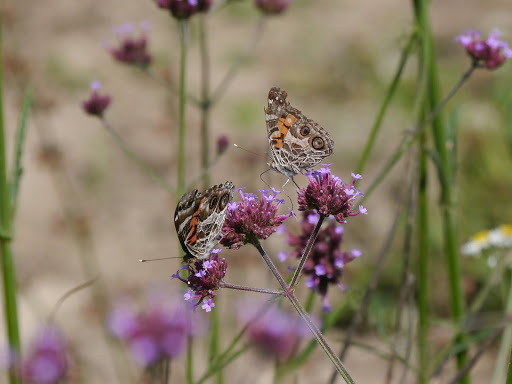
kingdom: Animalia
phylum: Arthropoda
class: Insecta
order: Lepidoptera
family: Nymphalidae
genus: Vanessa
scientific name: Vanessa virginiensis
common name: American lady
